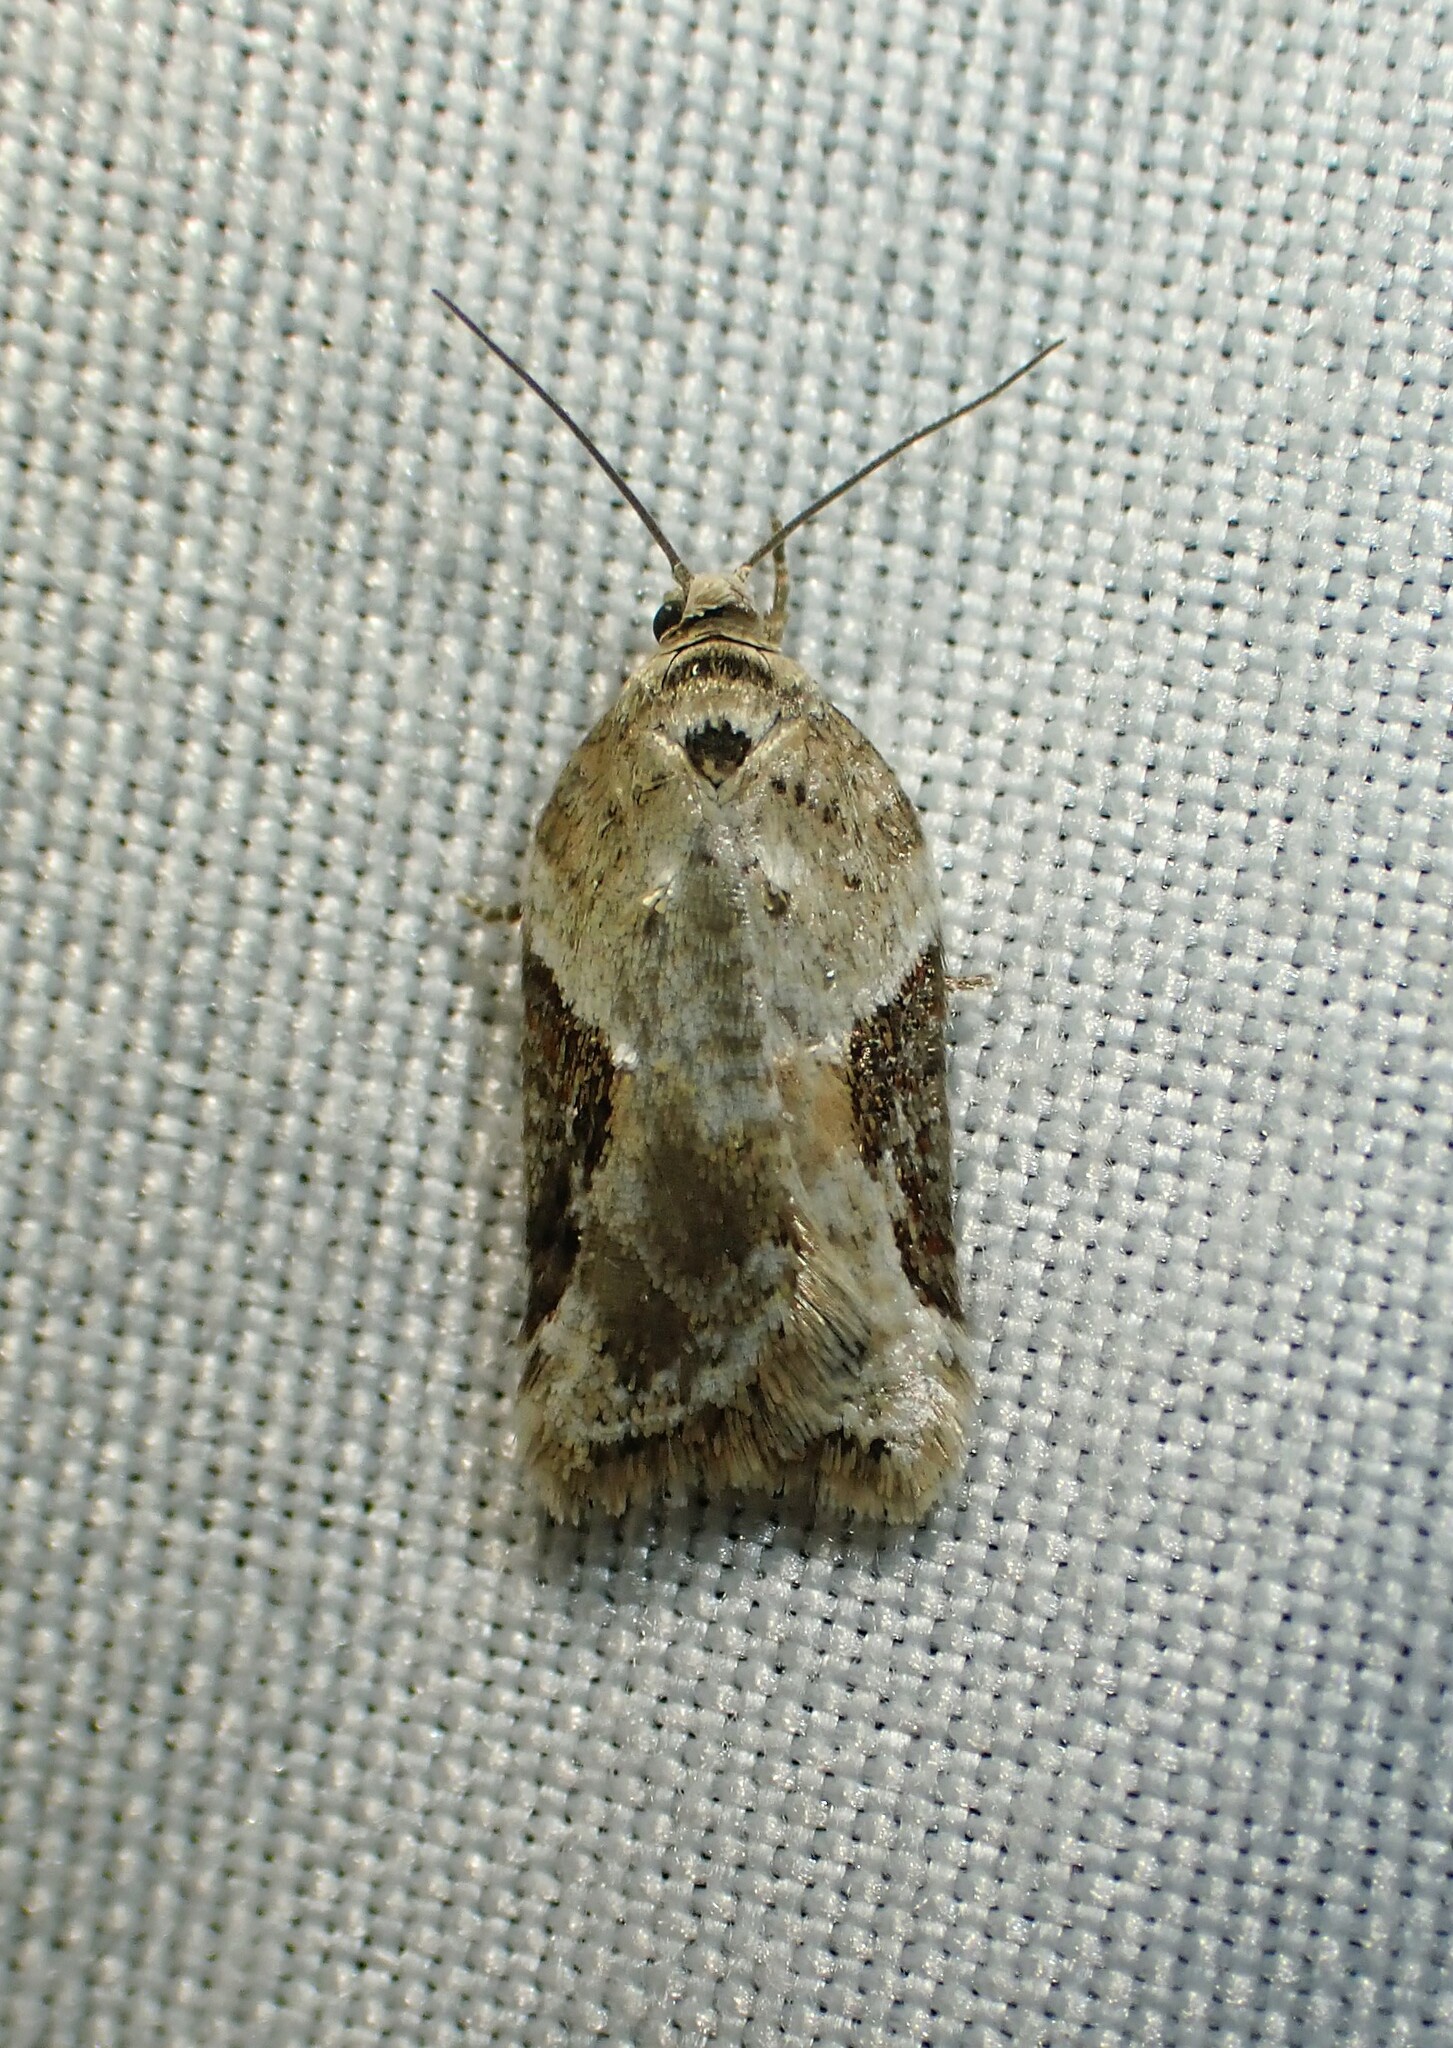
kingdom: Animalia
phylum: Arthropoda
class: Insecta
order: Lepidoptera
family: Tortricidae
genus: Acleris
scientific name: Acleris forbesana
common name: Forbes' acleris moth
